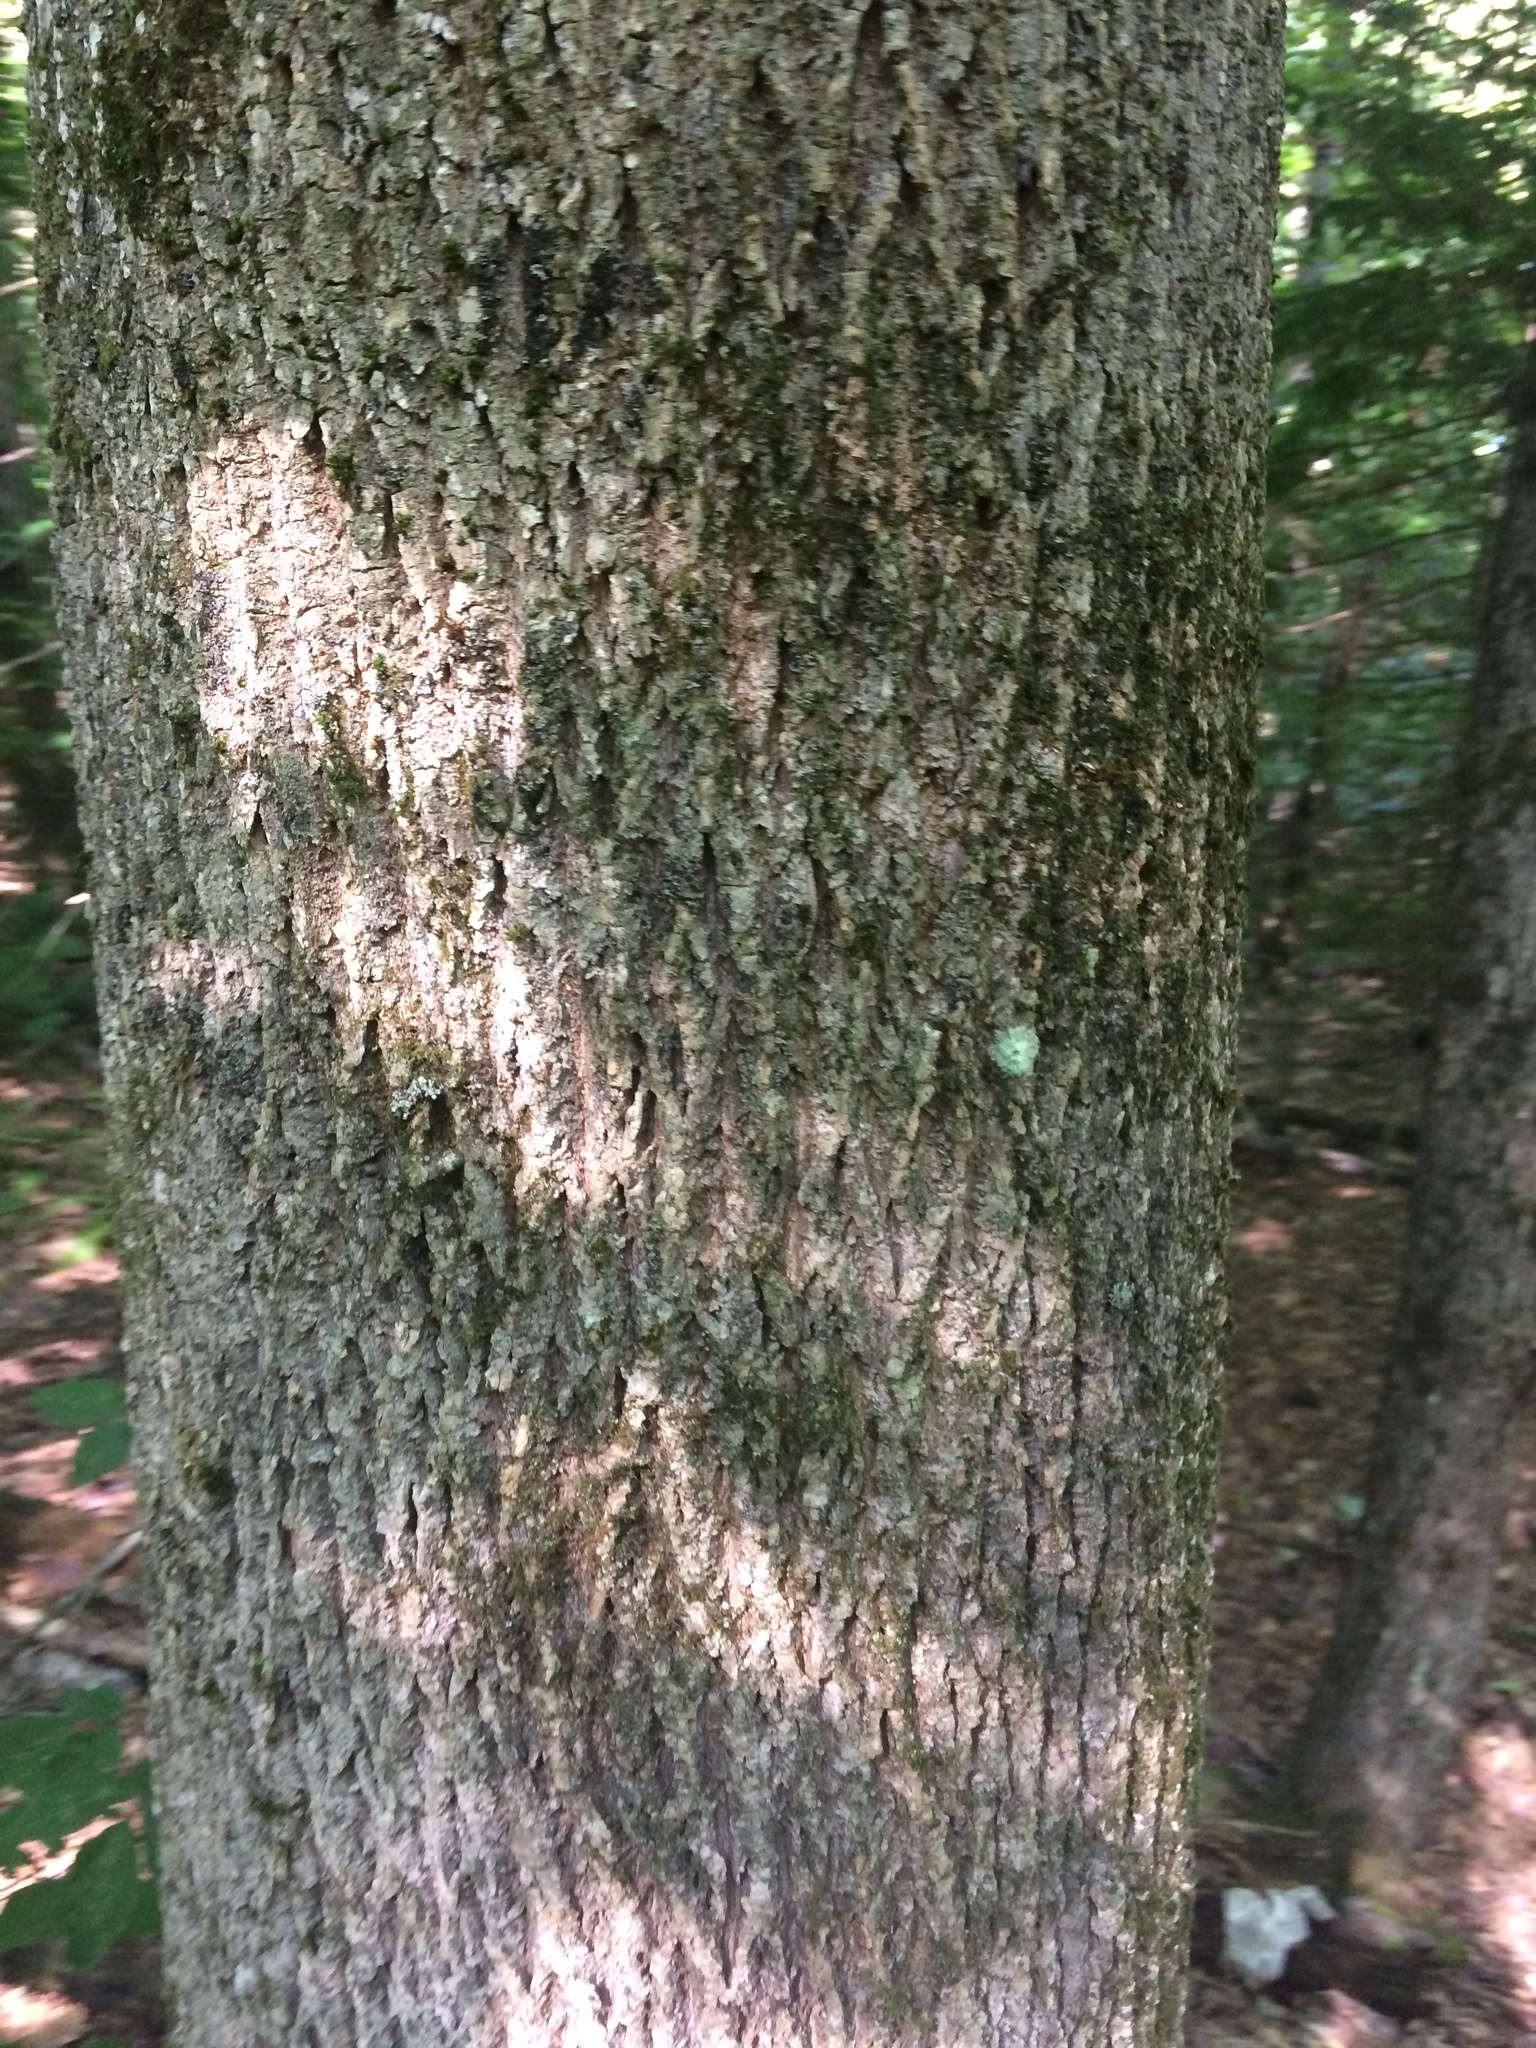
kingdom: Plantae
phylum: Tracheophyta
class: Magnoliopsida
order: Lamiales
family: Oleaceae
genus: Fraxinus
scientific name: Fraxinus americana
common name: White ash
